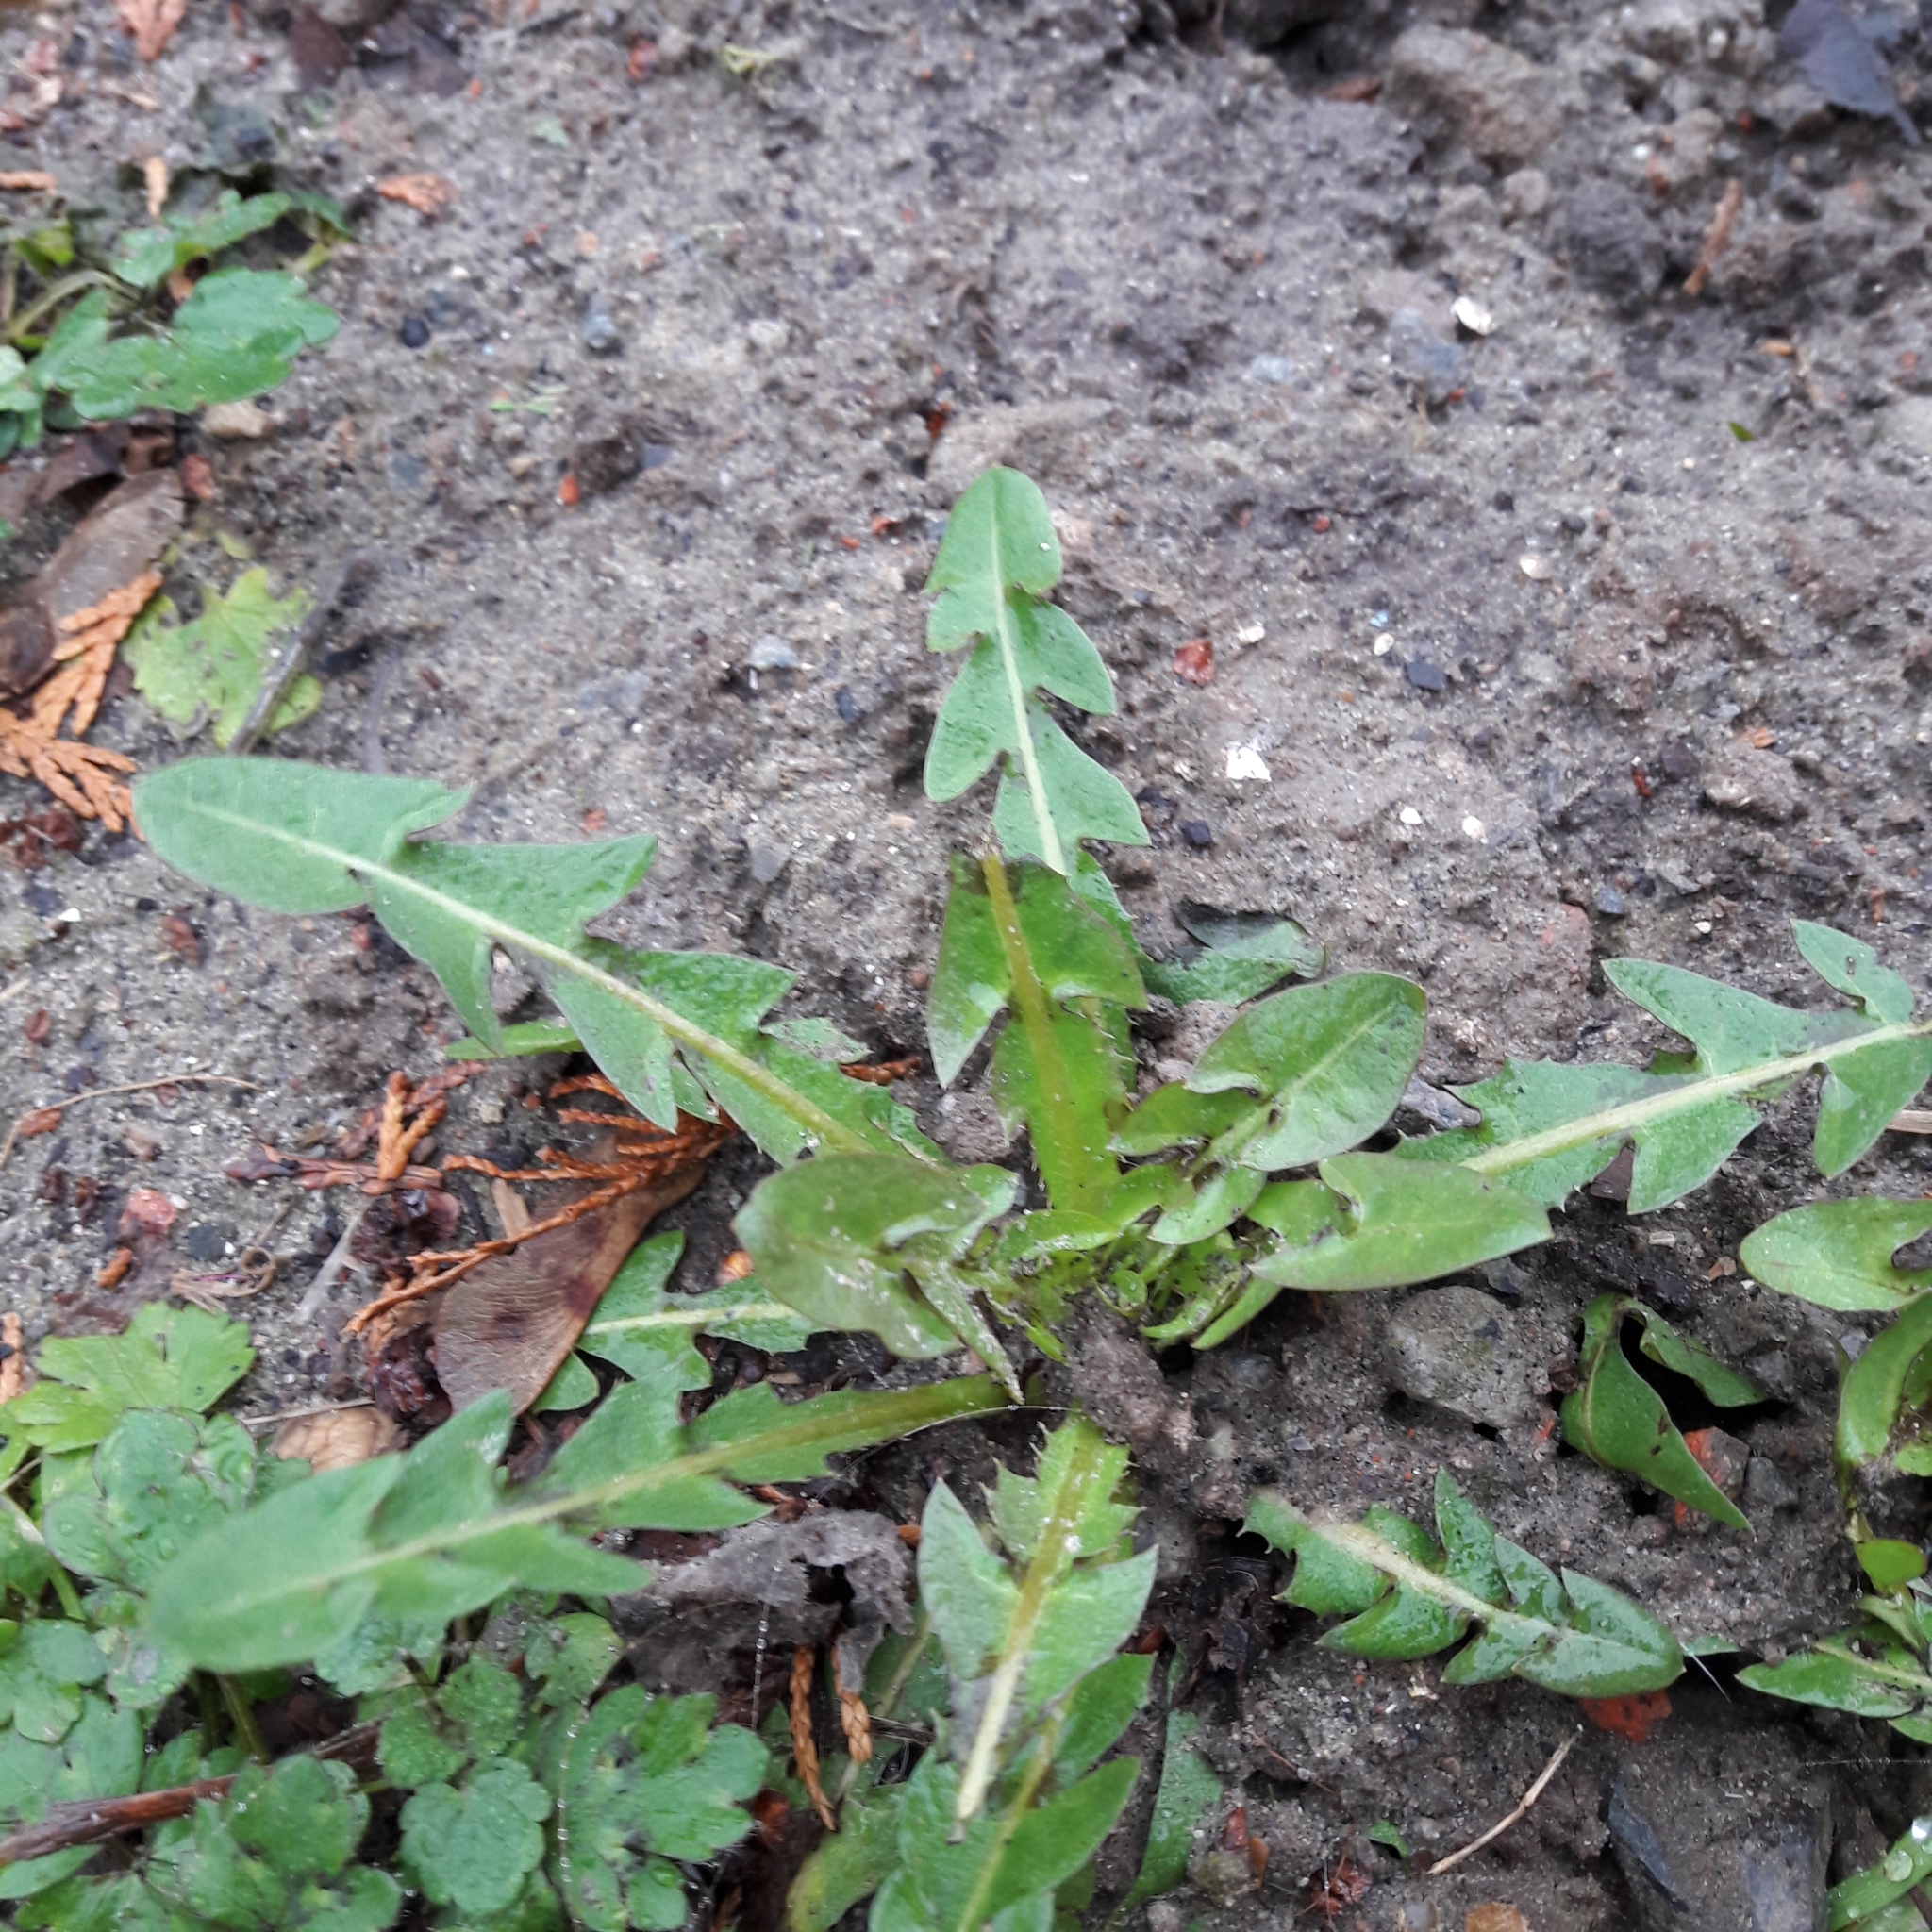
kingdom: Plantae
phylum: Tracheophyta
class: Magnoliopsida
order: Asterales
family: Asteraceae
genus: Taraxacum
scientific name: Taraxacum officinale
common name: Common dandelion
